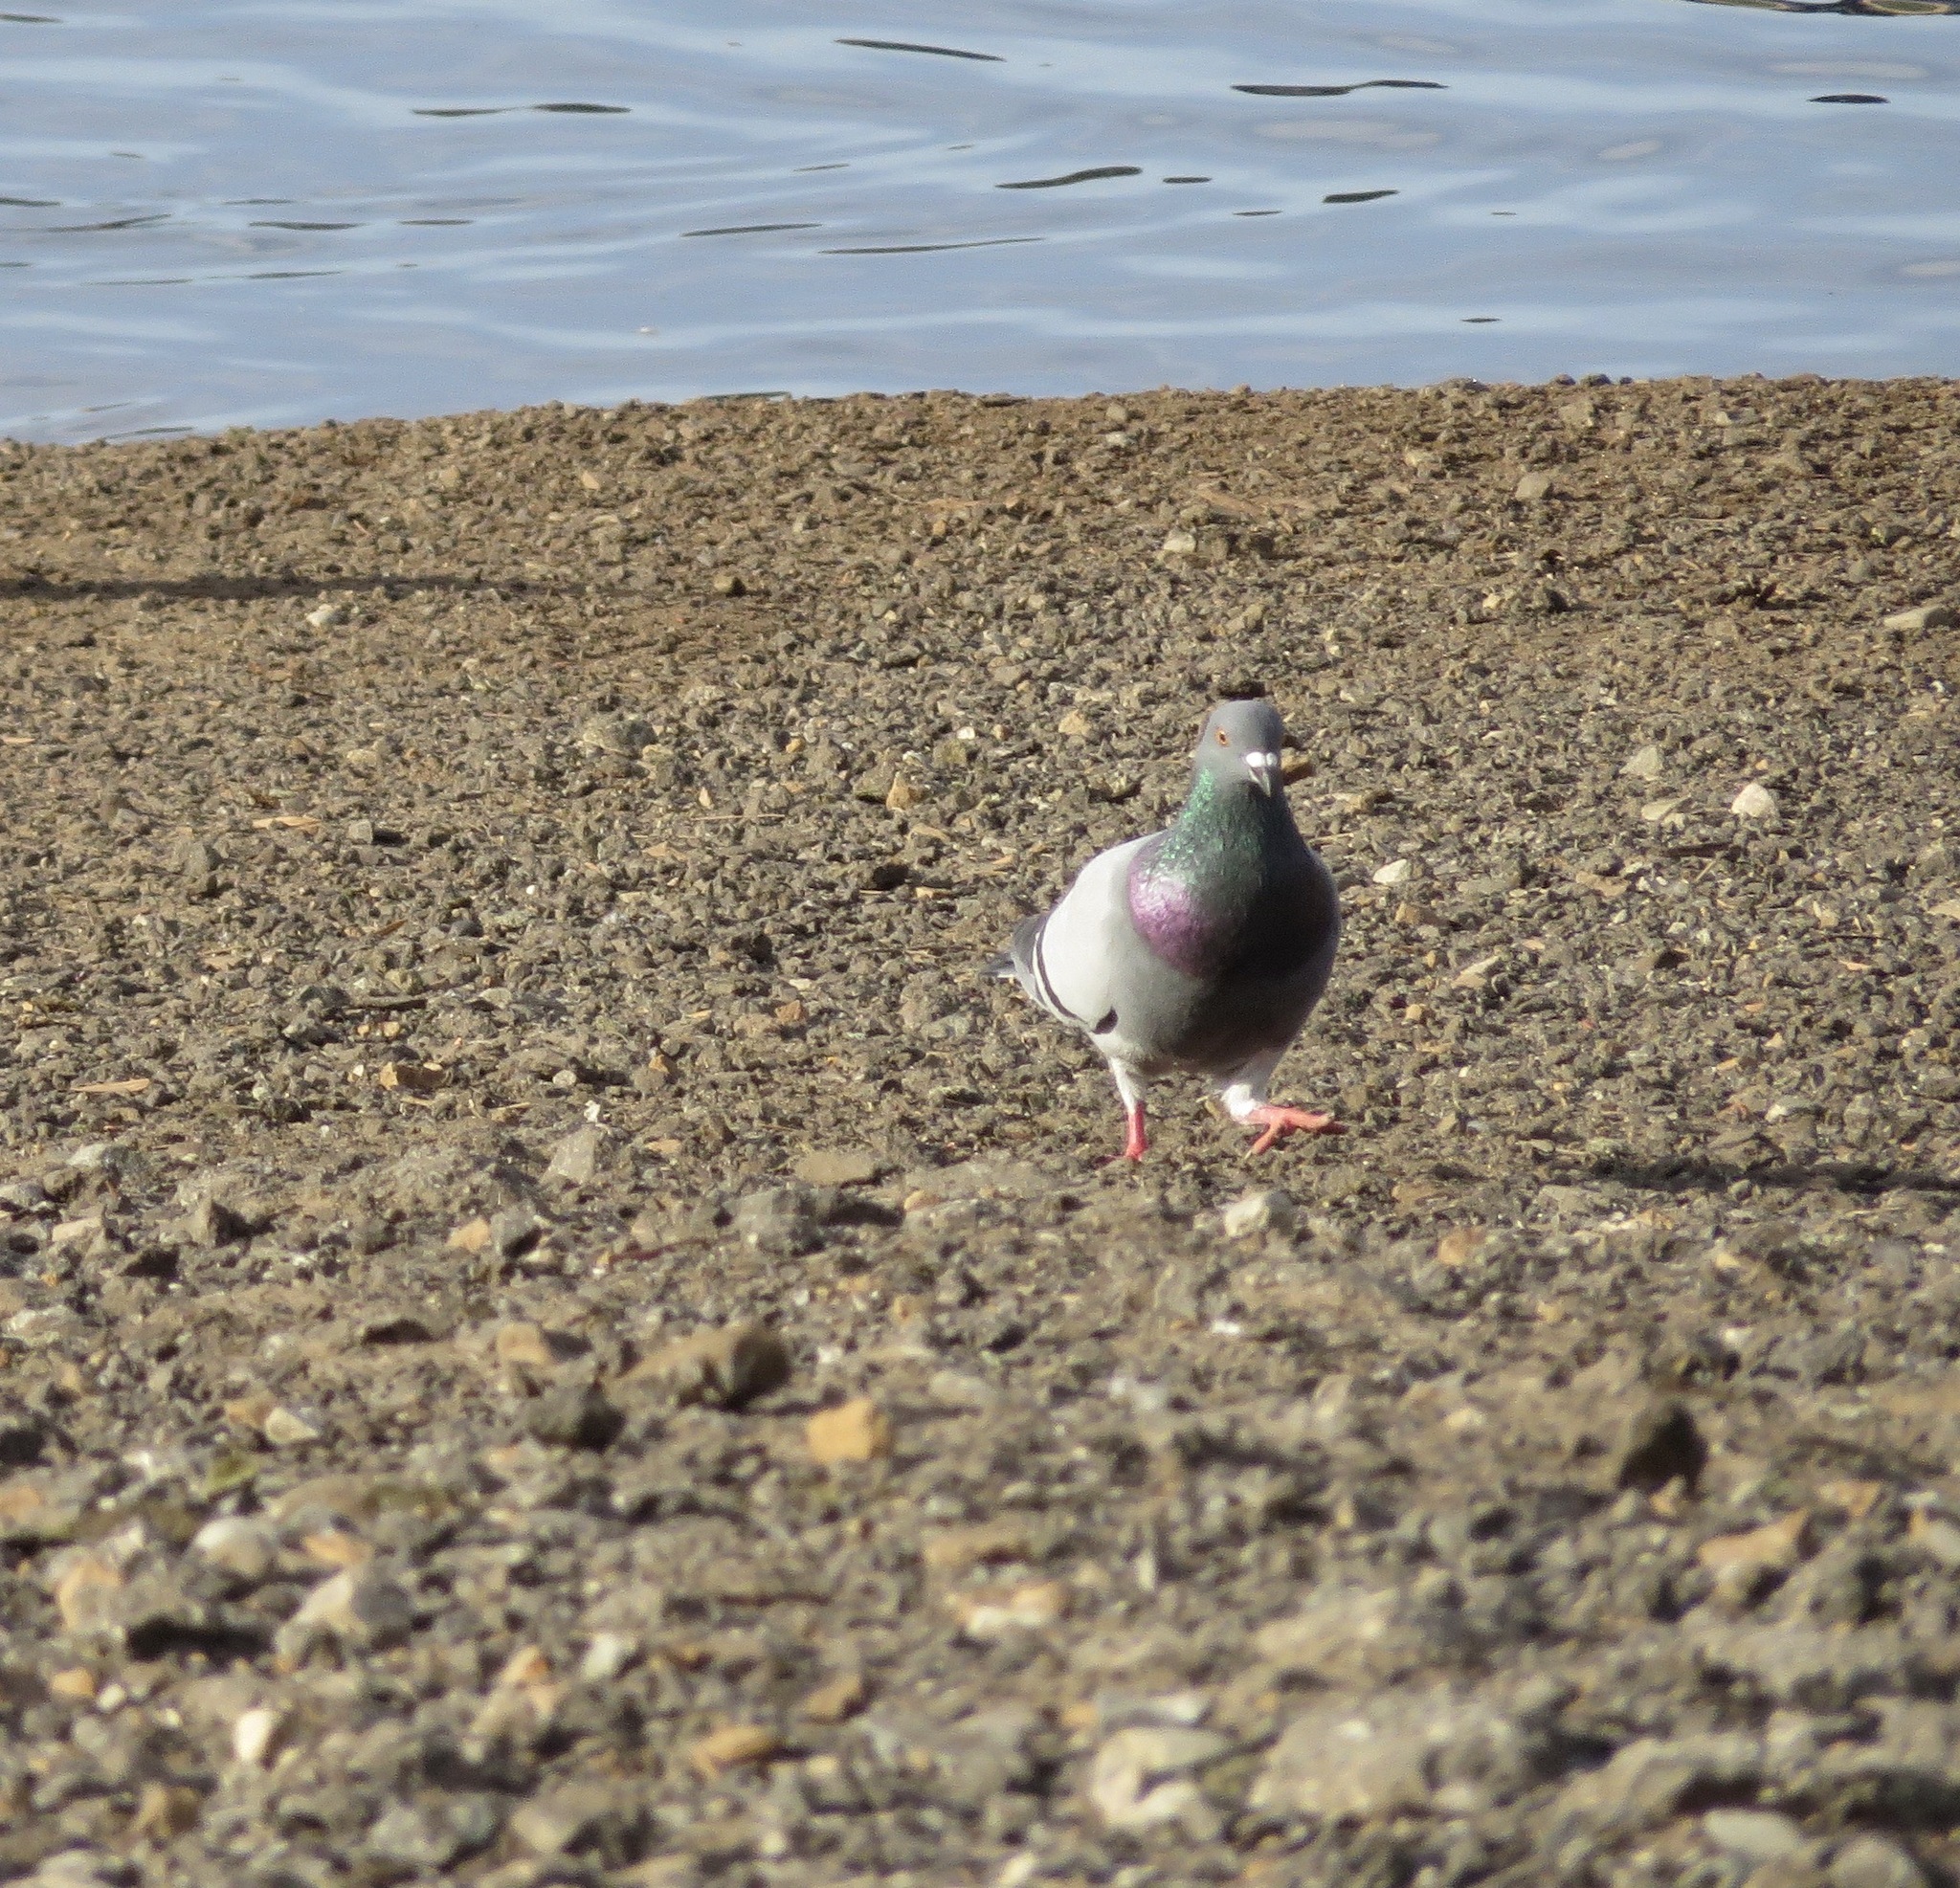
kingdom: Animalia
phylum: Chordata
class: Aves
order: Columbiformes
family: Columbidae
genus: Columba
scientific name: Columba livia
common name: Rock pigeon
